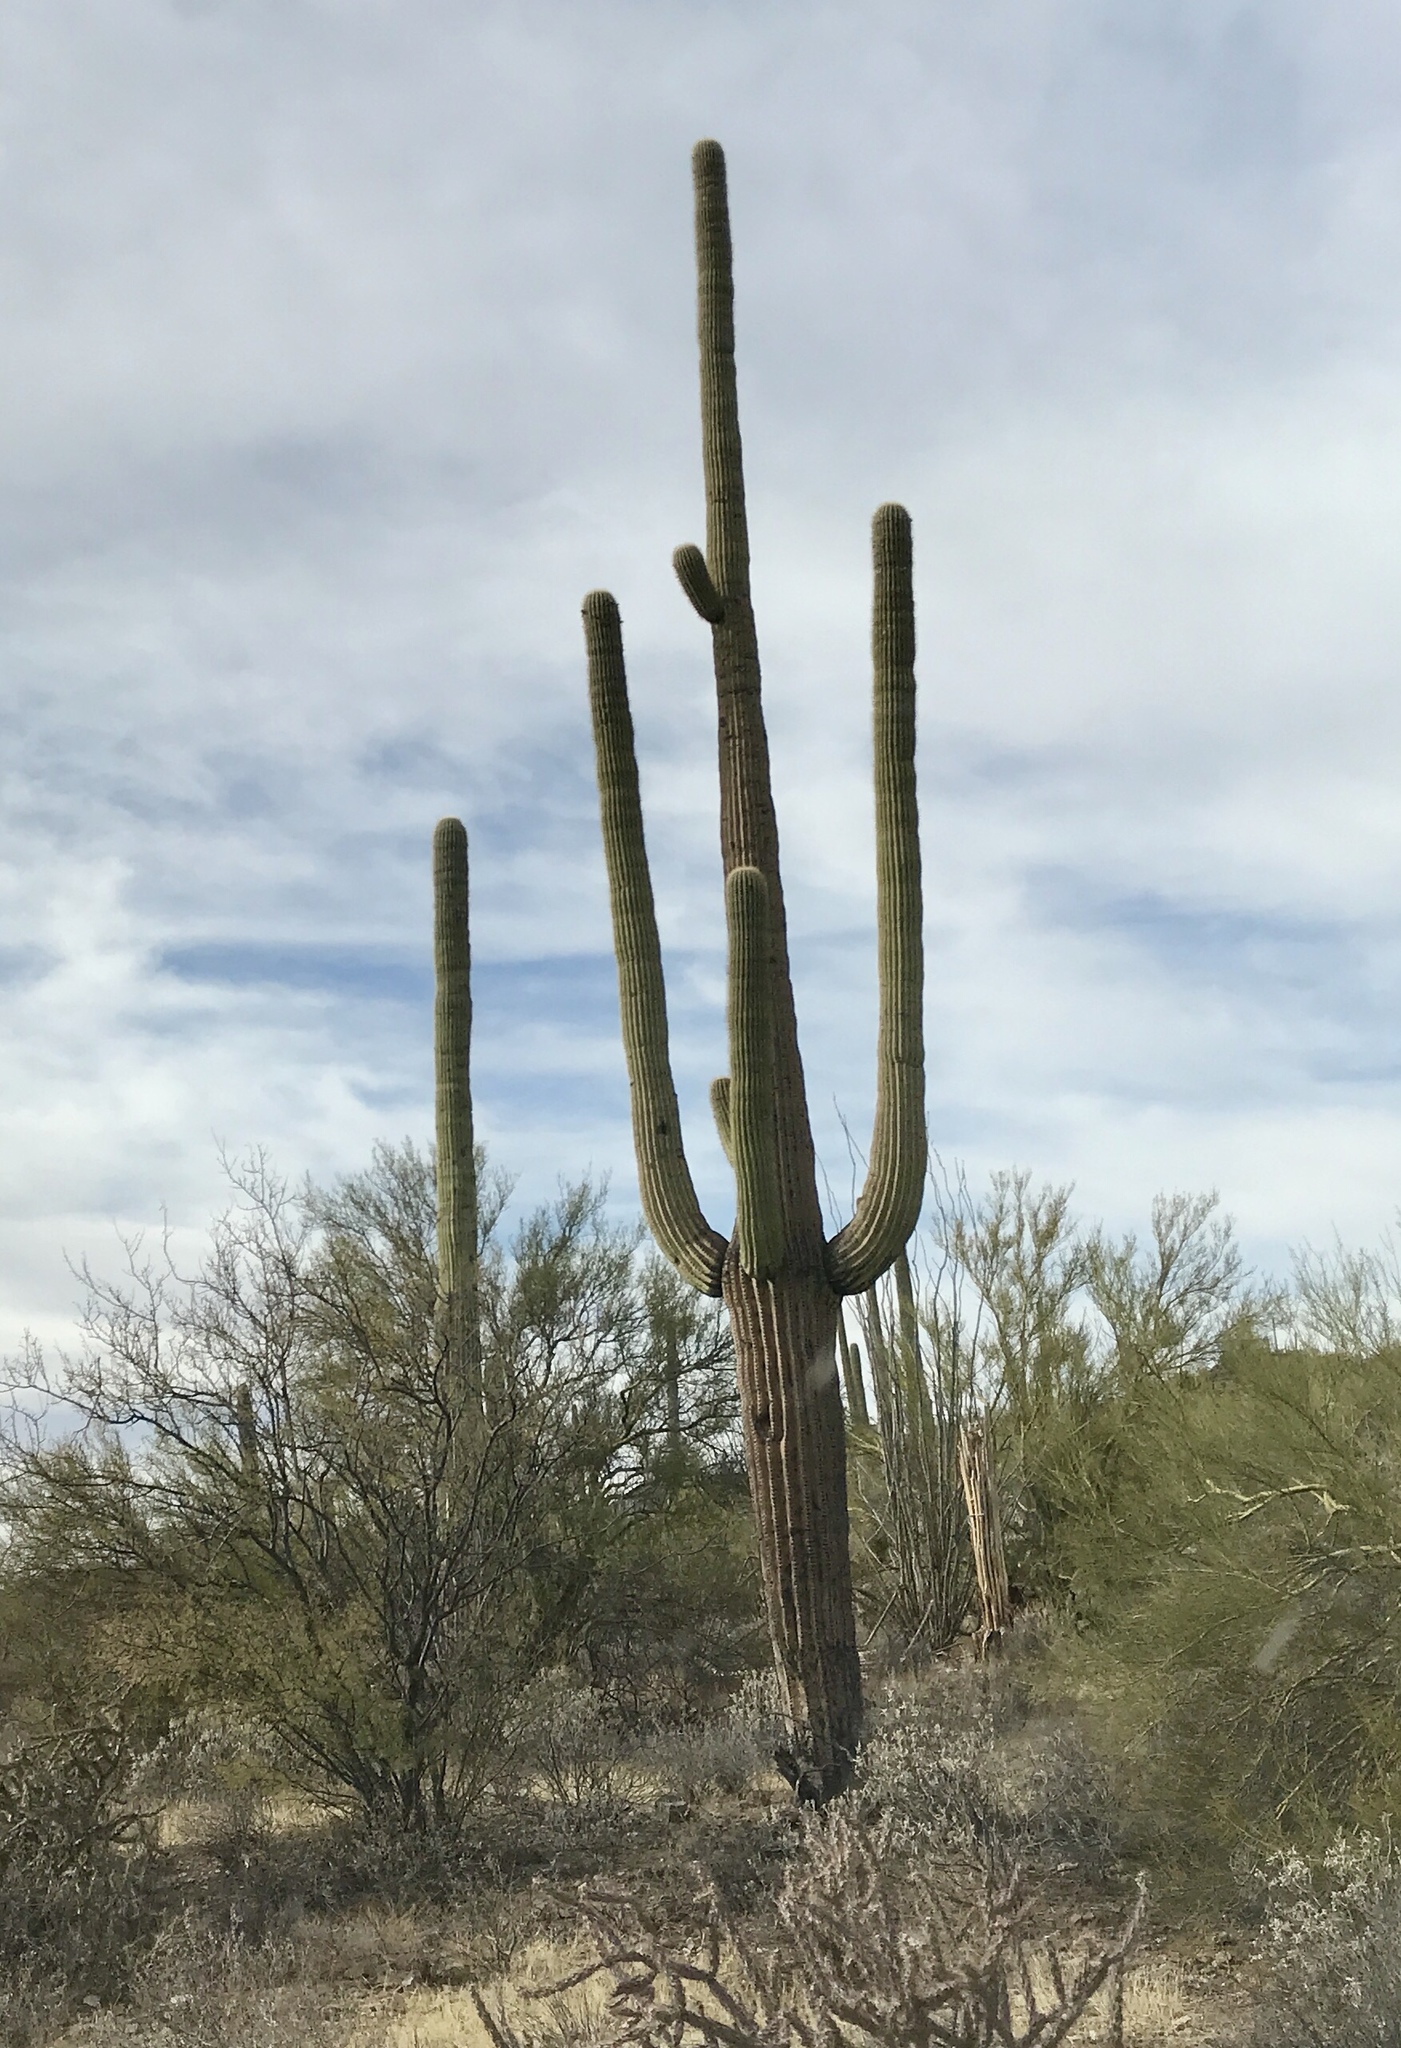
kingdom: Plantae
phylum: Tracheophyta
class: Magnoliopsida
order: Caryophyllales
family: Cactaceae
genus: Carnegiea
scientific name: Carnegiea gigantea
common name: Saguaro
